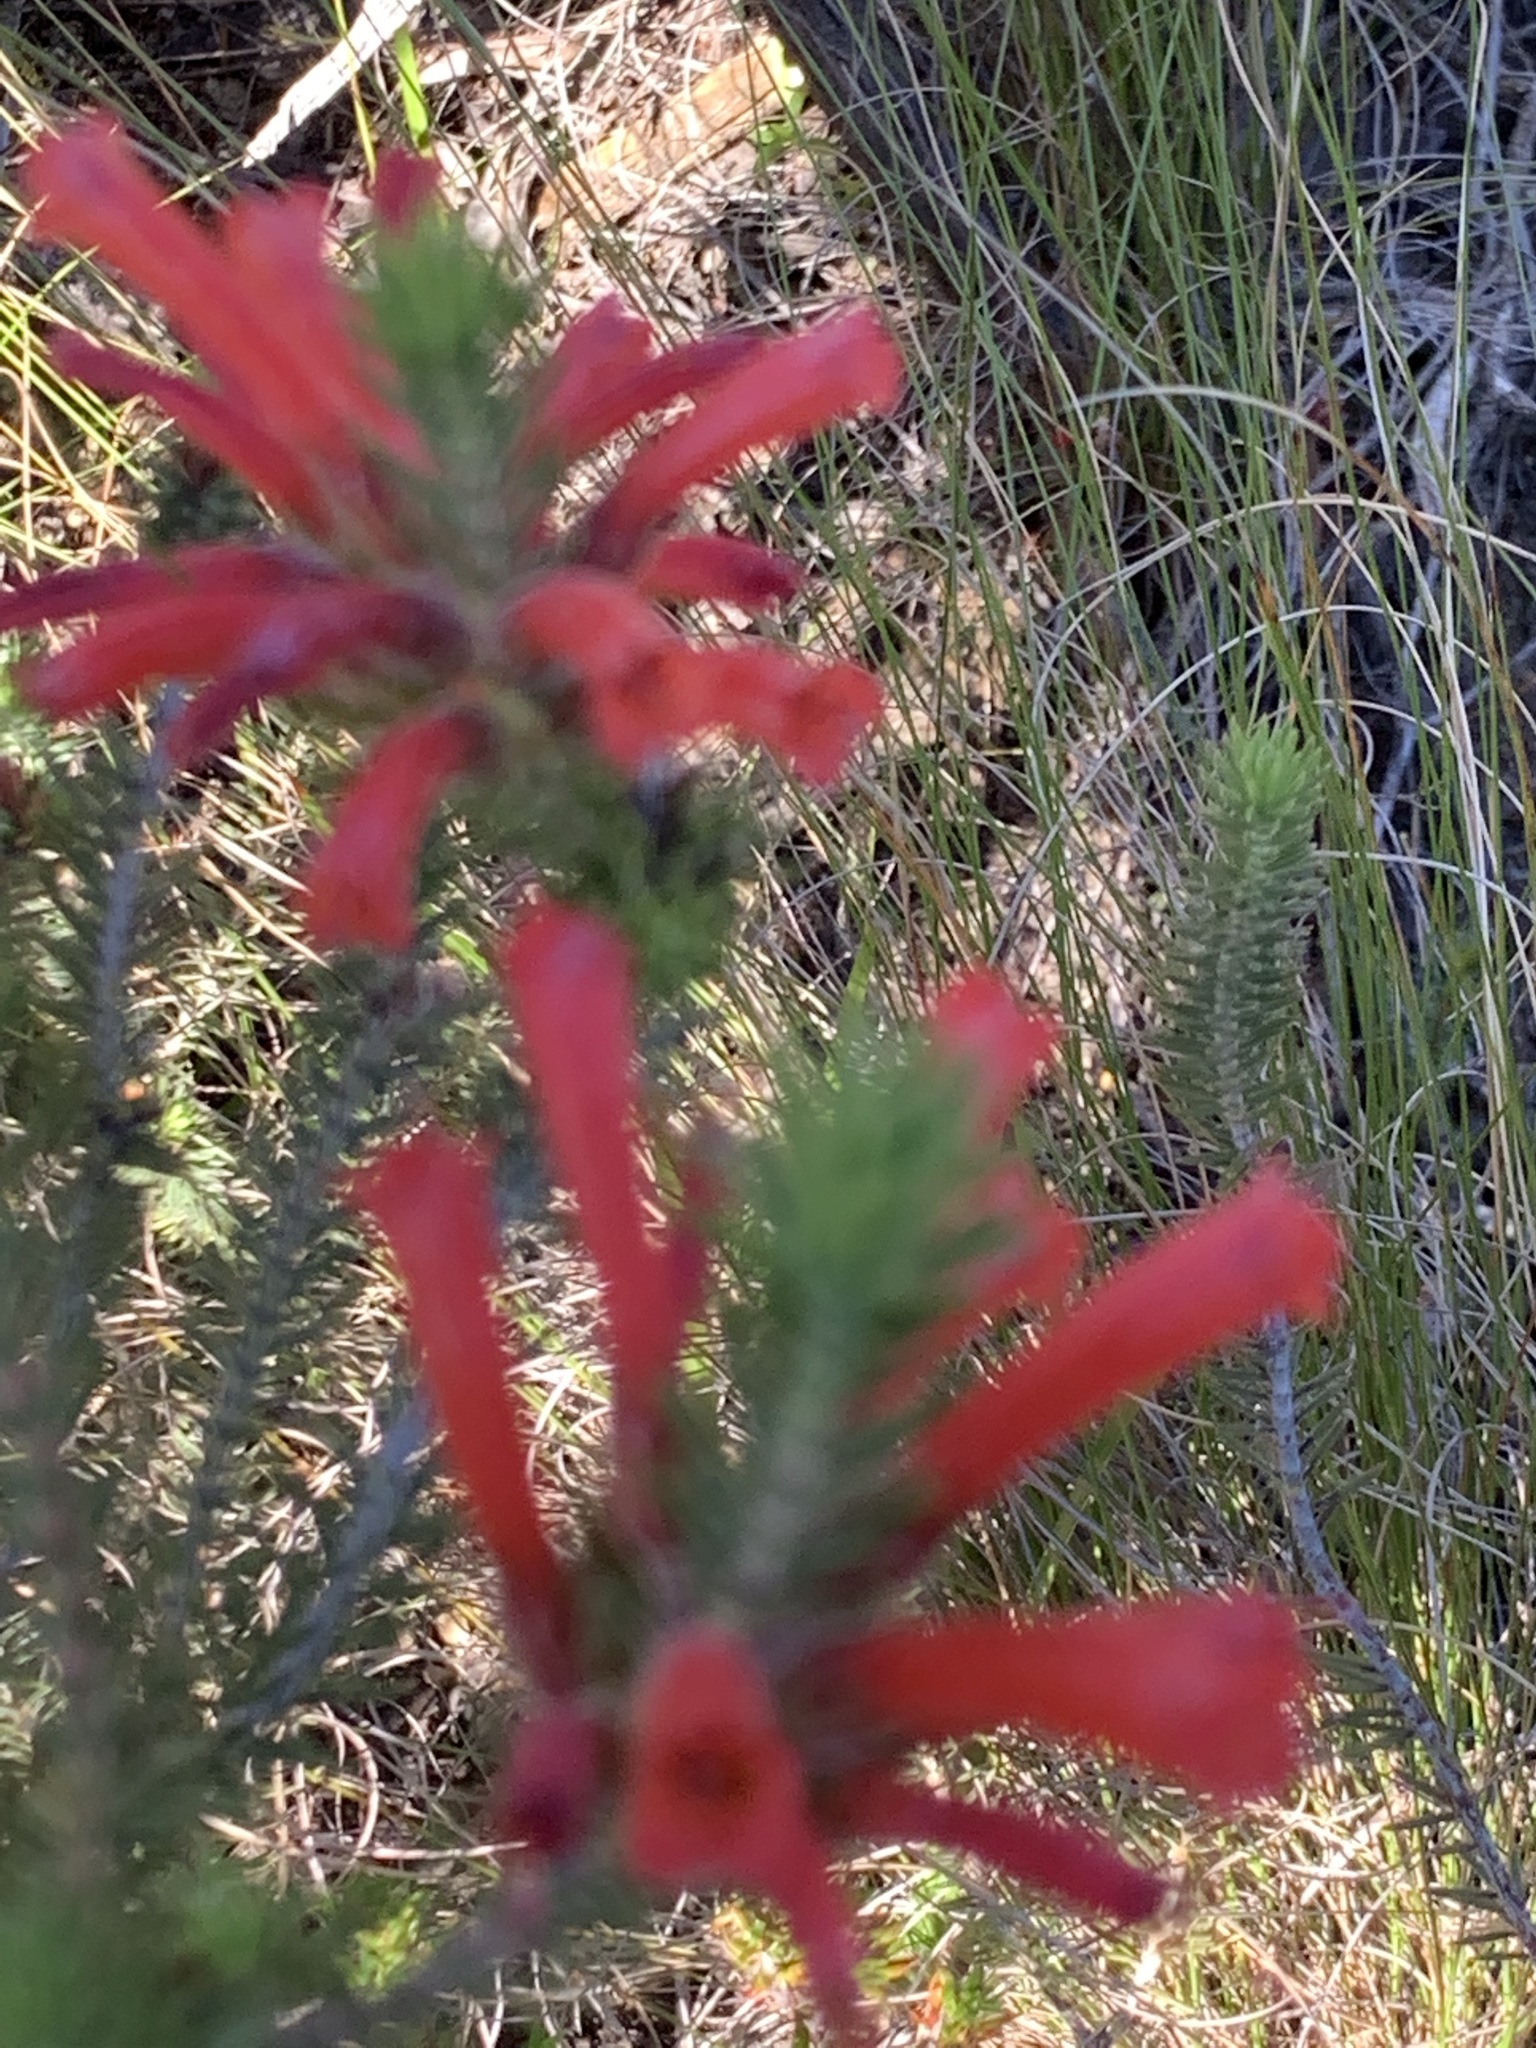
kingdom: Plantae
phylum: Tracheophyta
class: Magnoliopsida
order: Ericales
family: Ericaceae
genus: Erica
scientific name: Erica abietina
